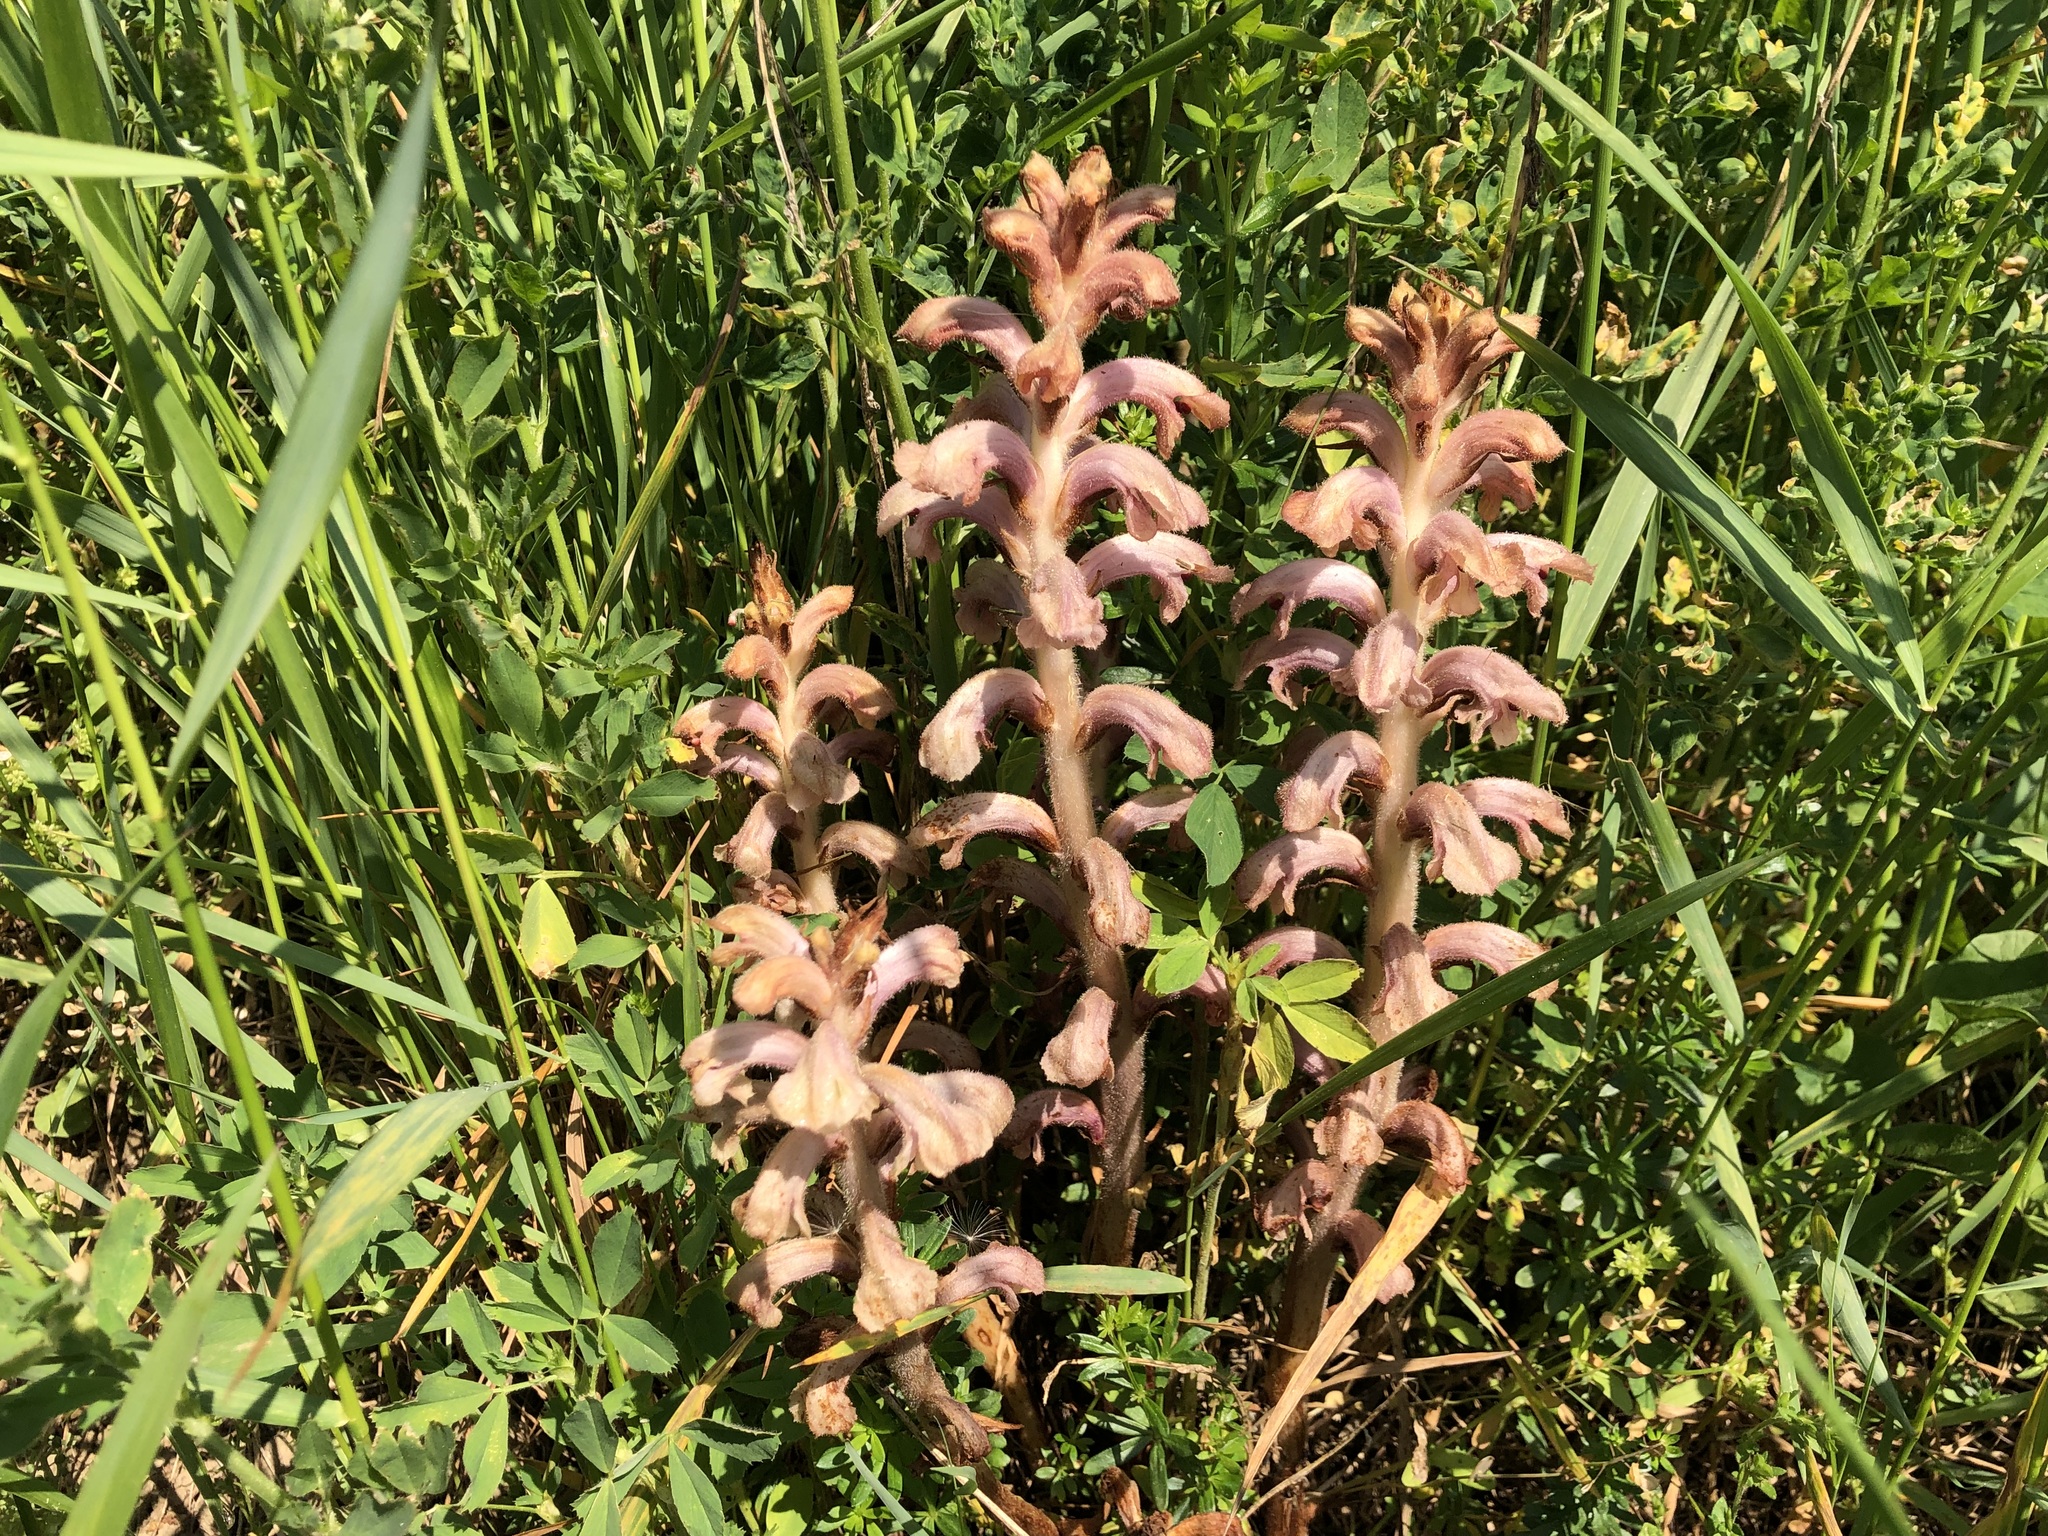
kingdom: Plantae
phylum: Tracheophyta
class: Magnoliopsida
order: Lamiales
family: Orobanchaceae
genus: Orobanche
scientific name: Orobanche caryophyllacea
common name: Bedstraw broomrape
